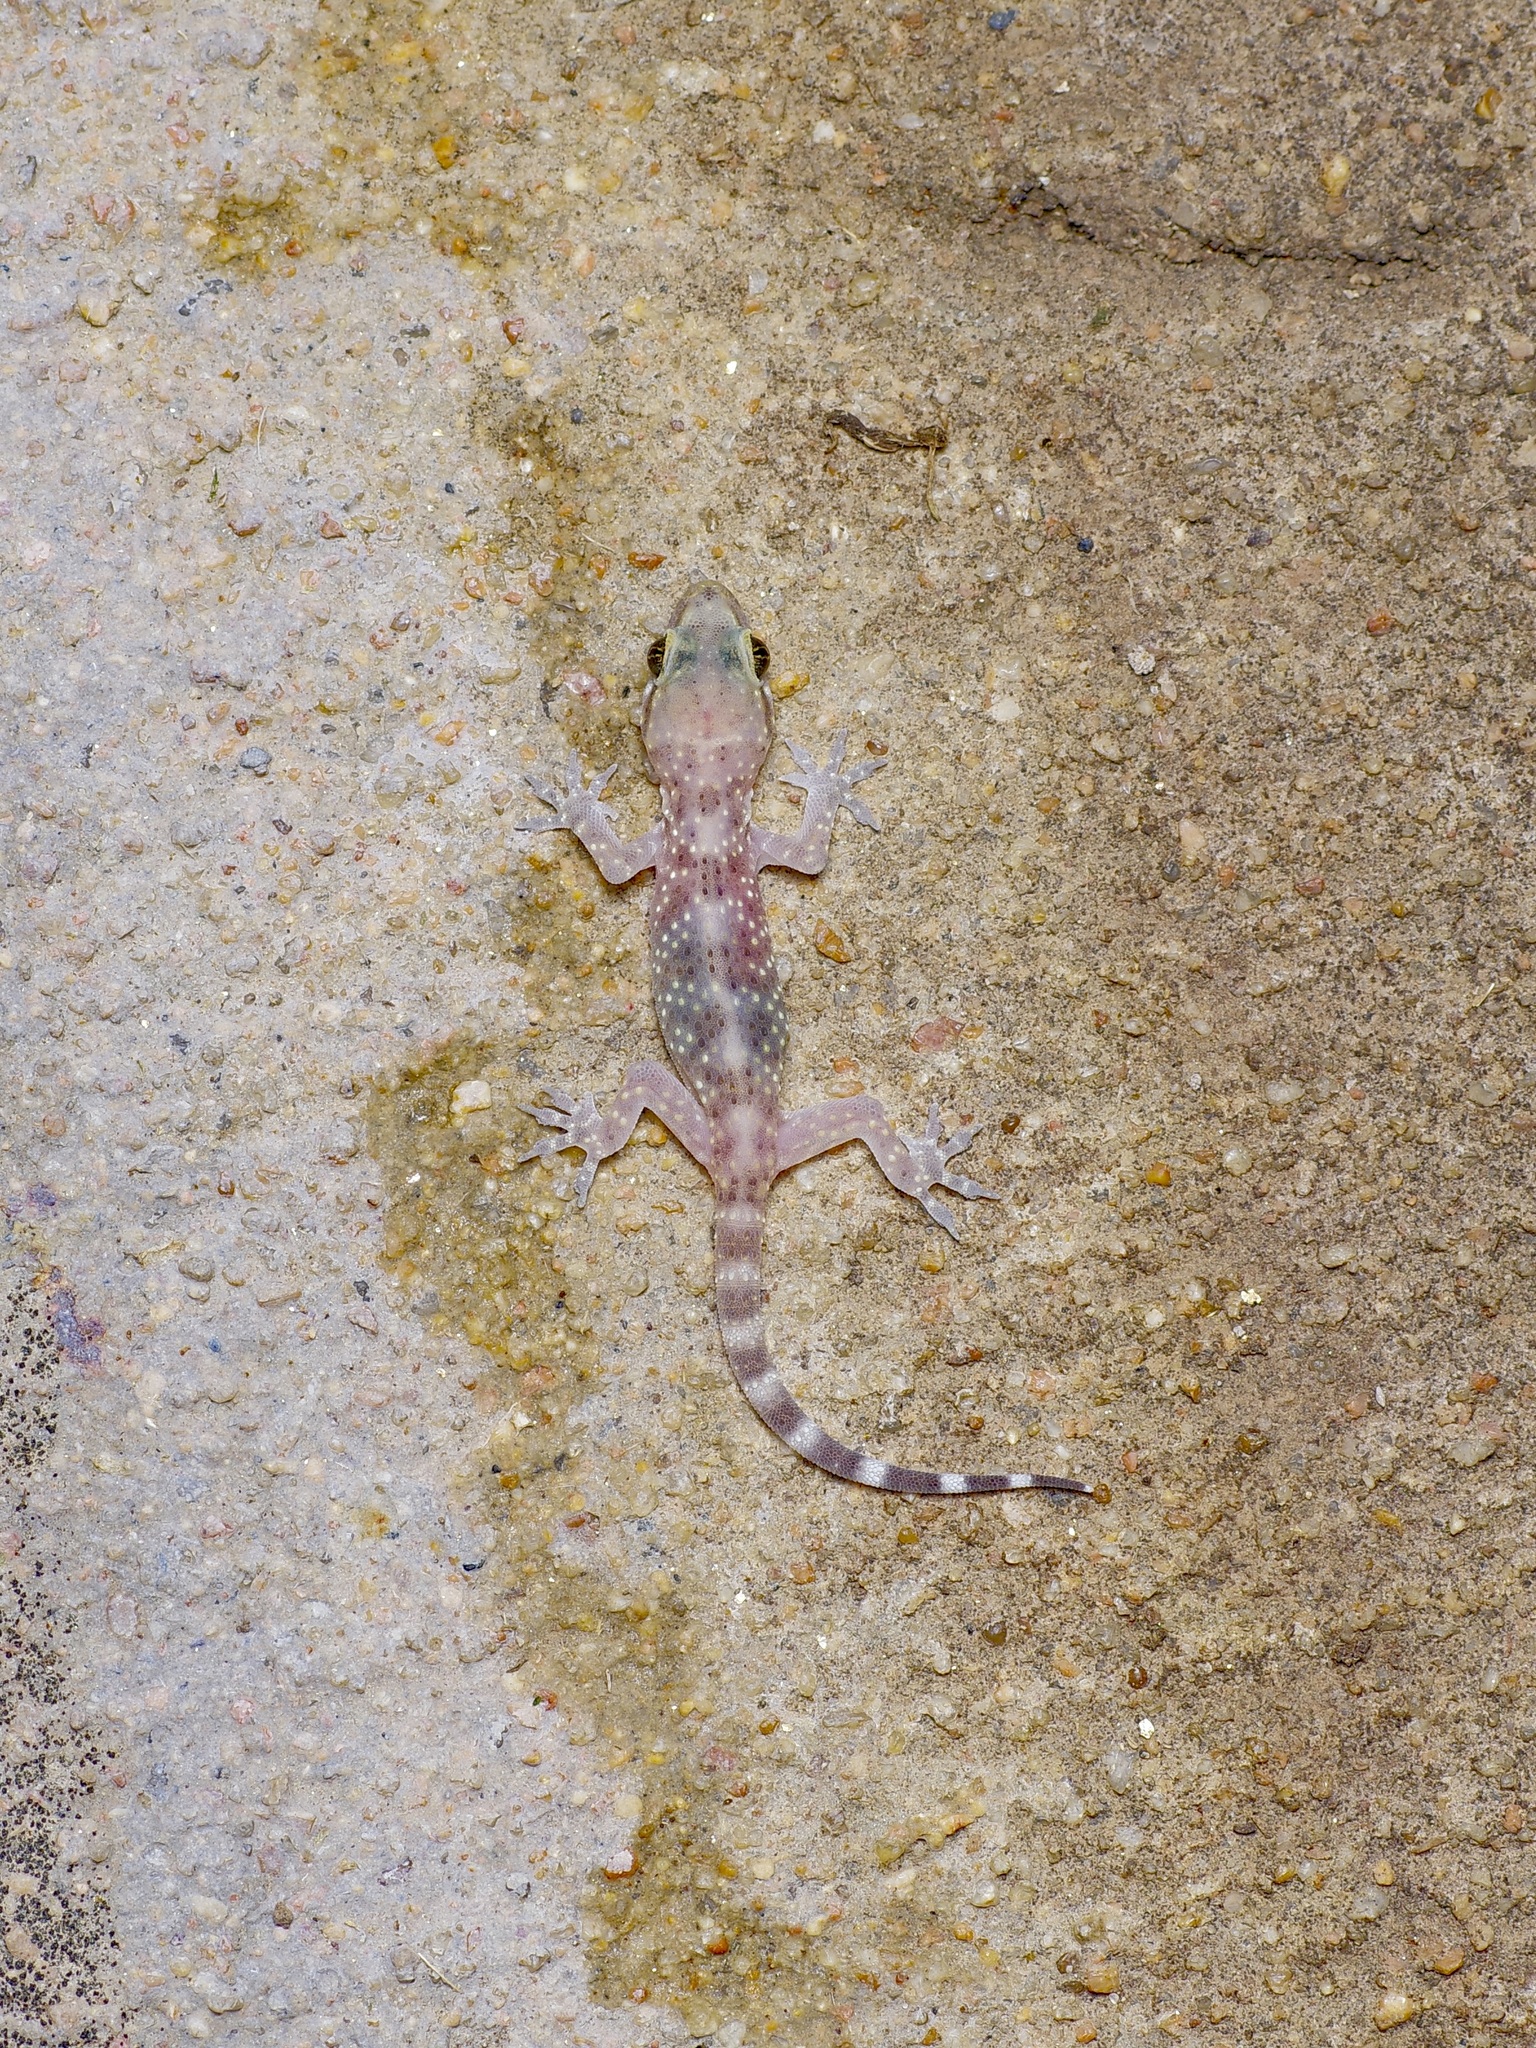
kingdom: Animalia
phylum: Chordata
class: Squamata
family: Gekkonidae
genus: Hemidactylus
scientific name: Hemidactylus turcicus
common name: Turkish gecko
